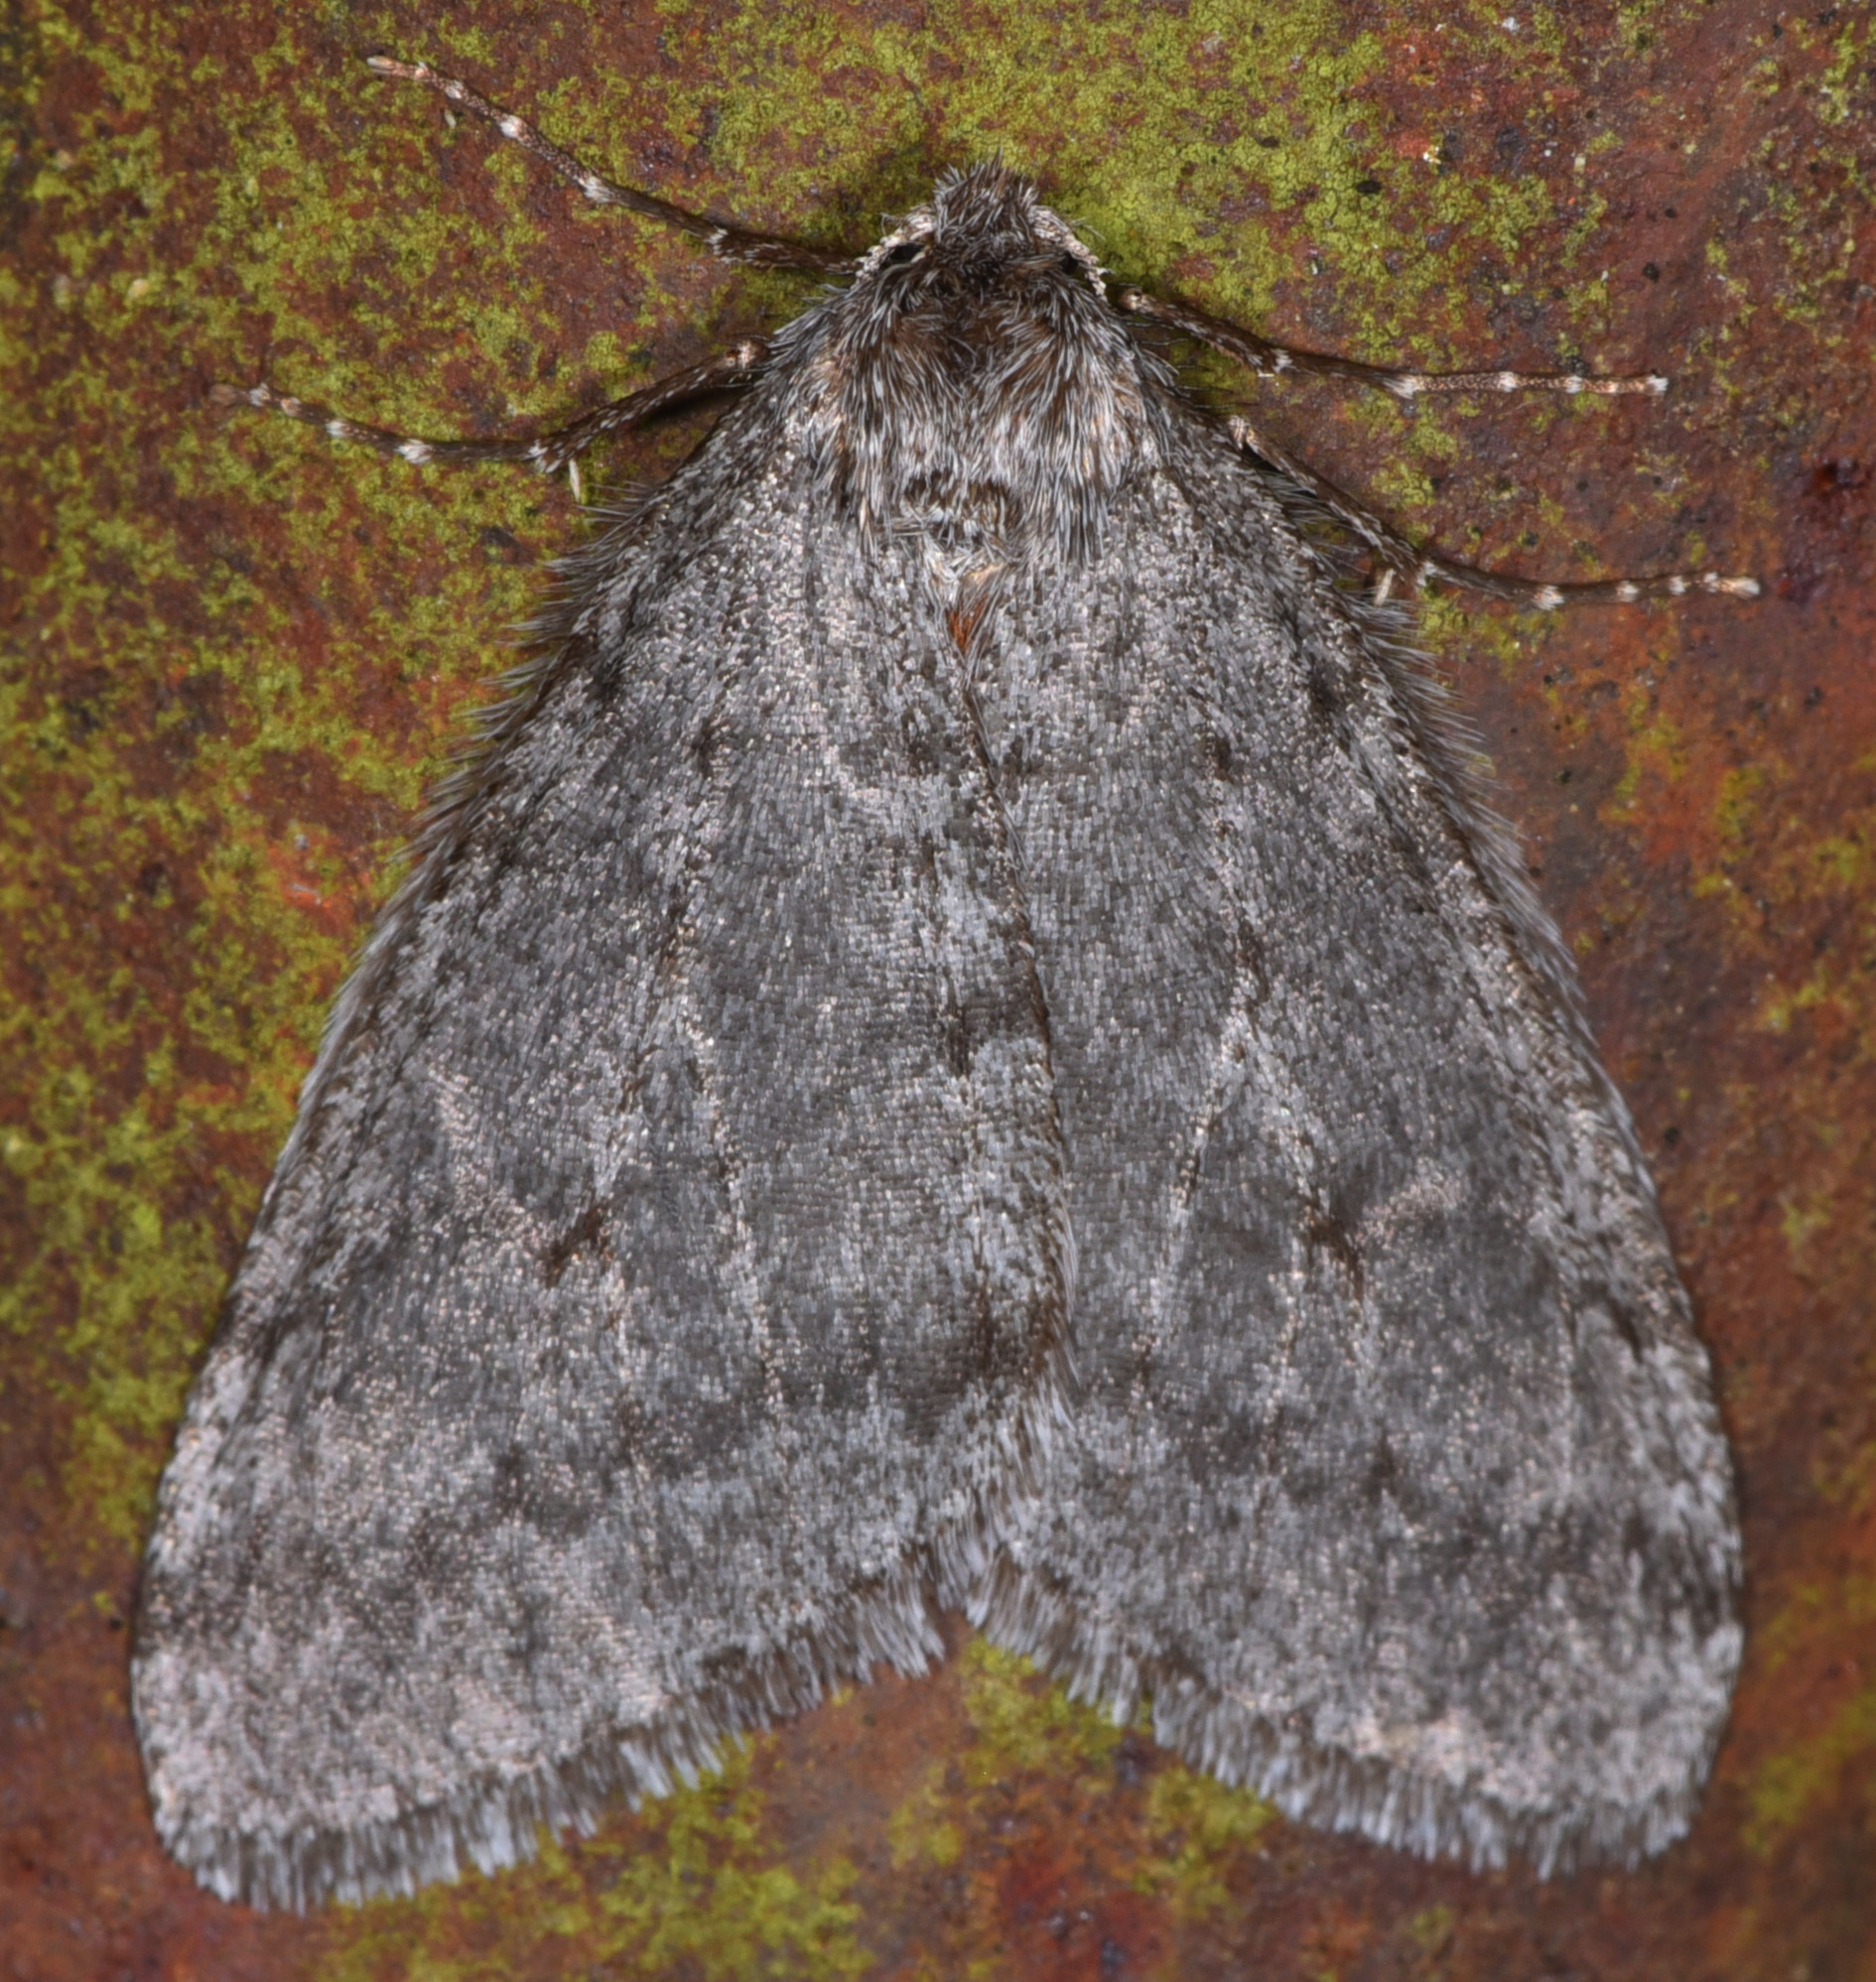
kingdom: Animalia
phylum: Arthropoda
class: Insecta
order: Lepidoptera
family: Geometridae
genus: Phigalia
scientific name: Phigalia plumogeraria
